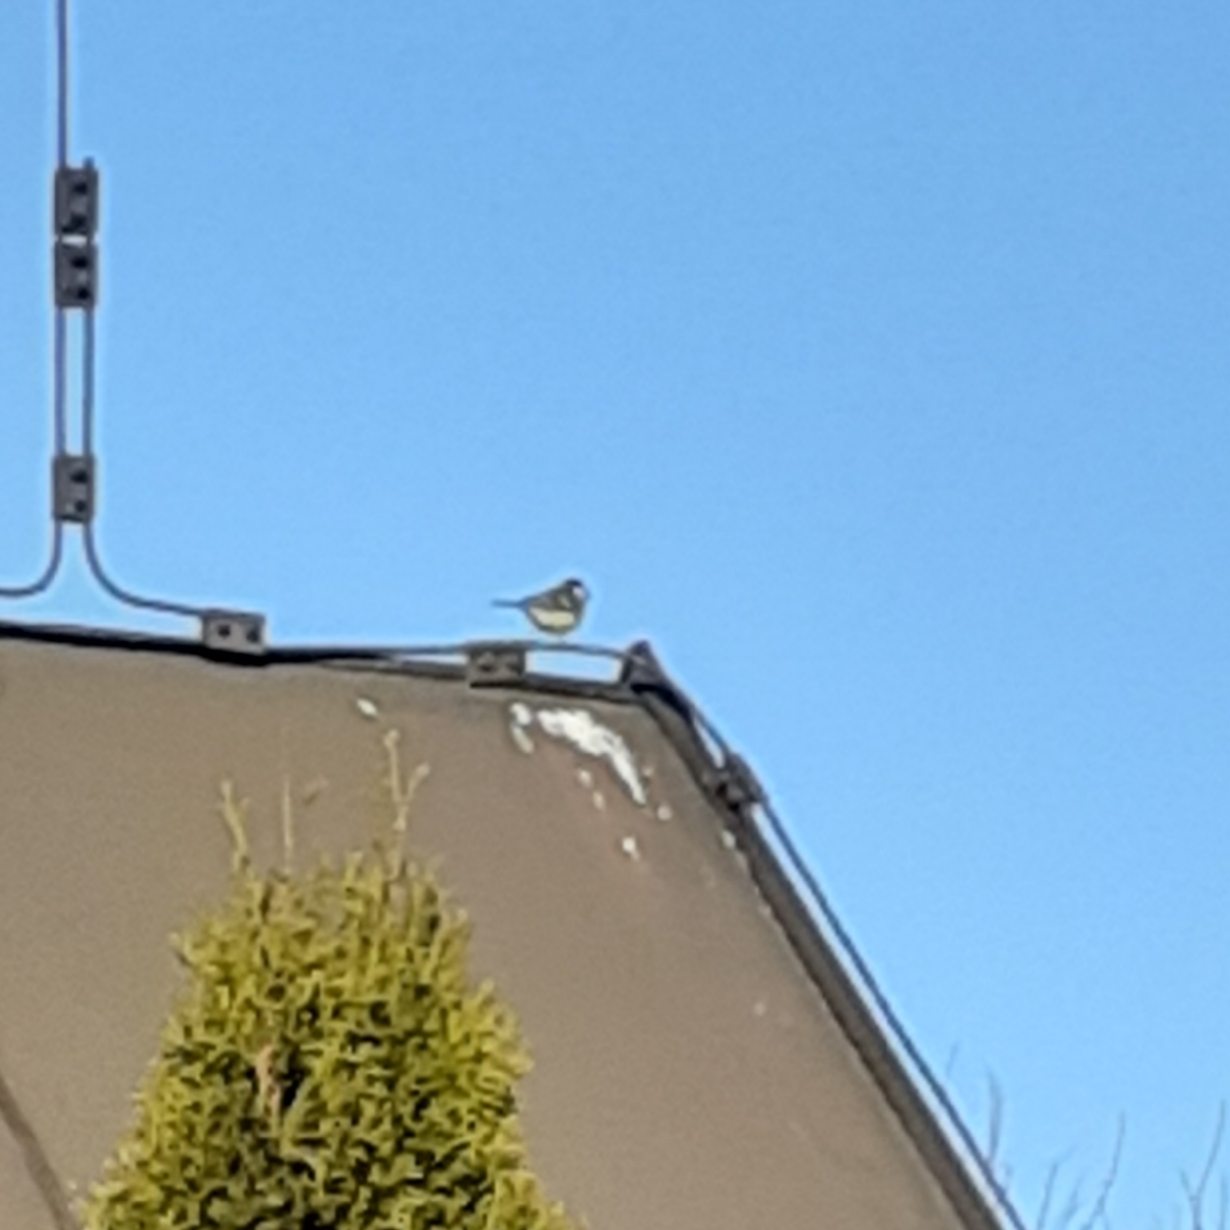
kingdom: Animalia
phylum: Chordata
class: Aves
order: Passeriformes
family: Paridae
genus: Parus
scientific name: Parus major
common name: Great tit
